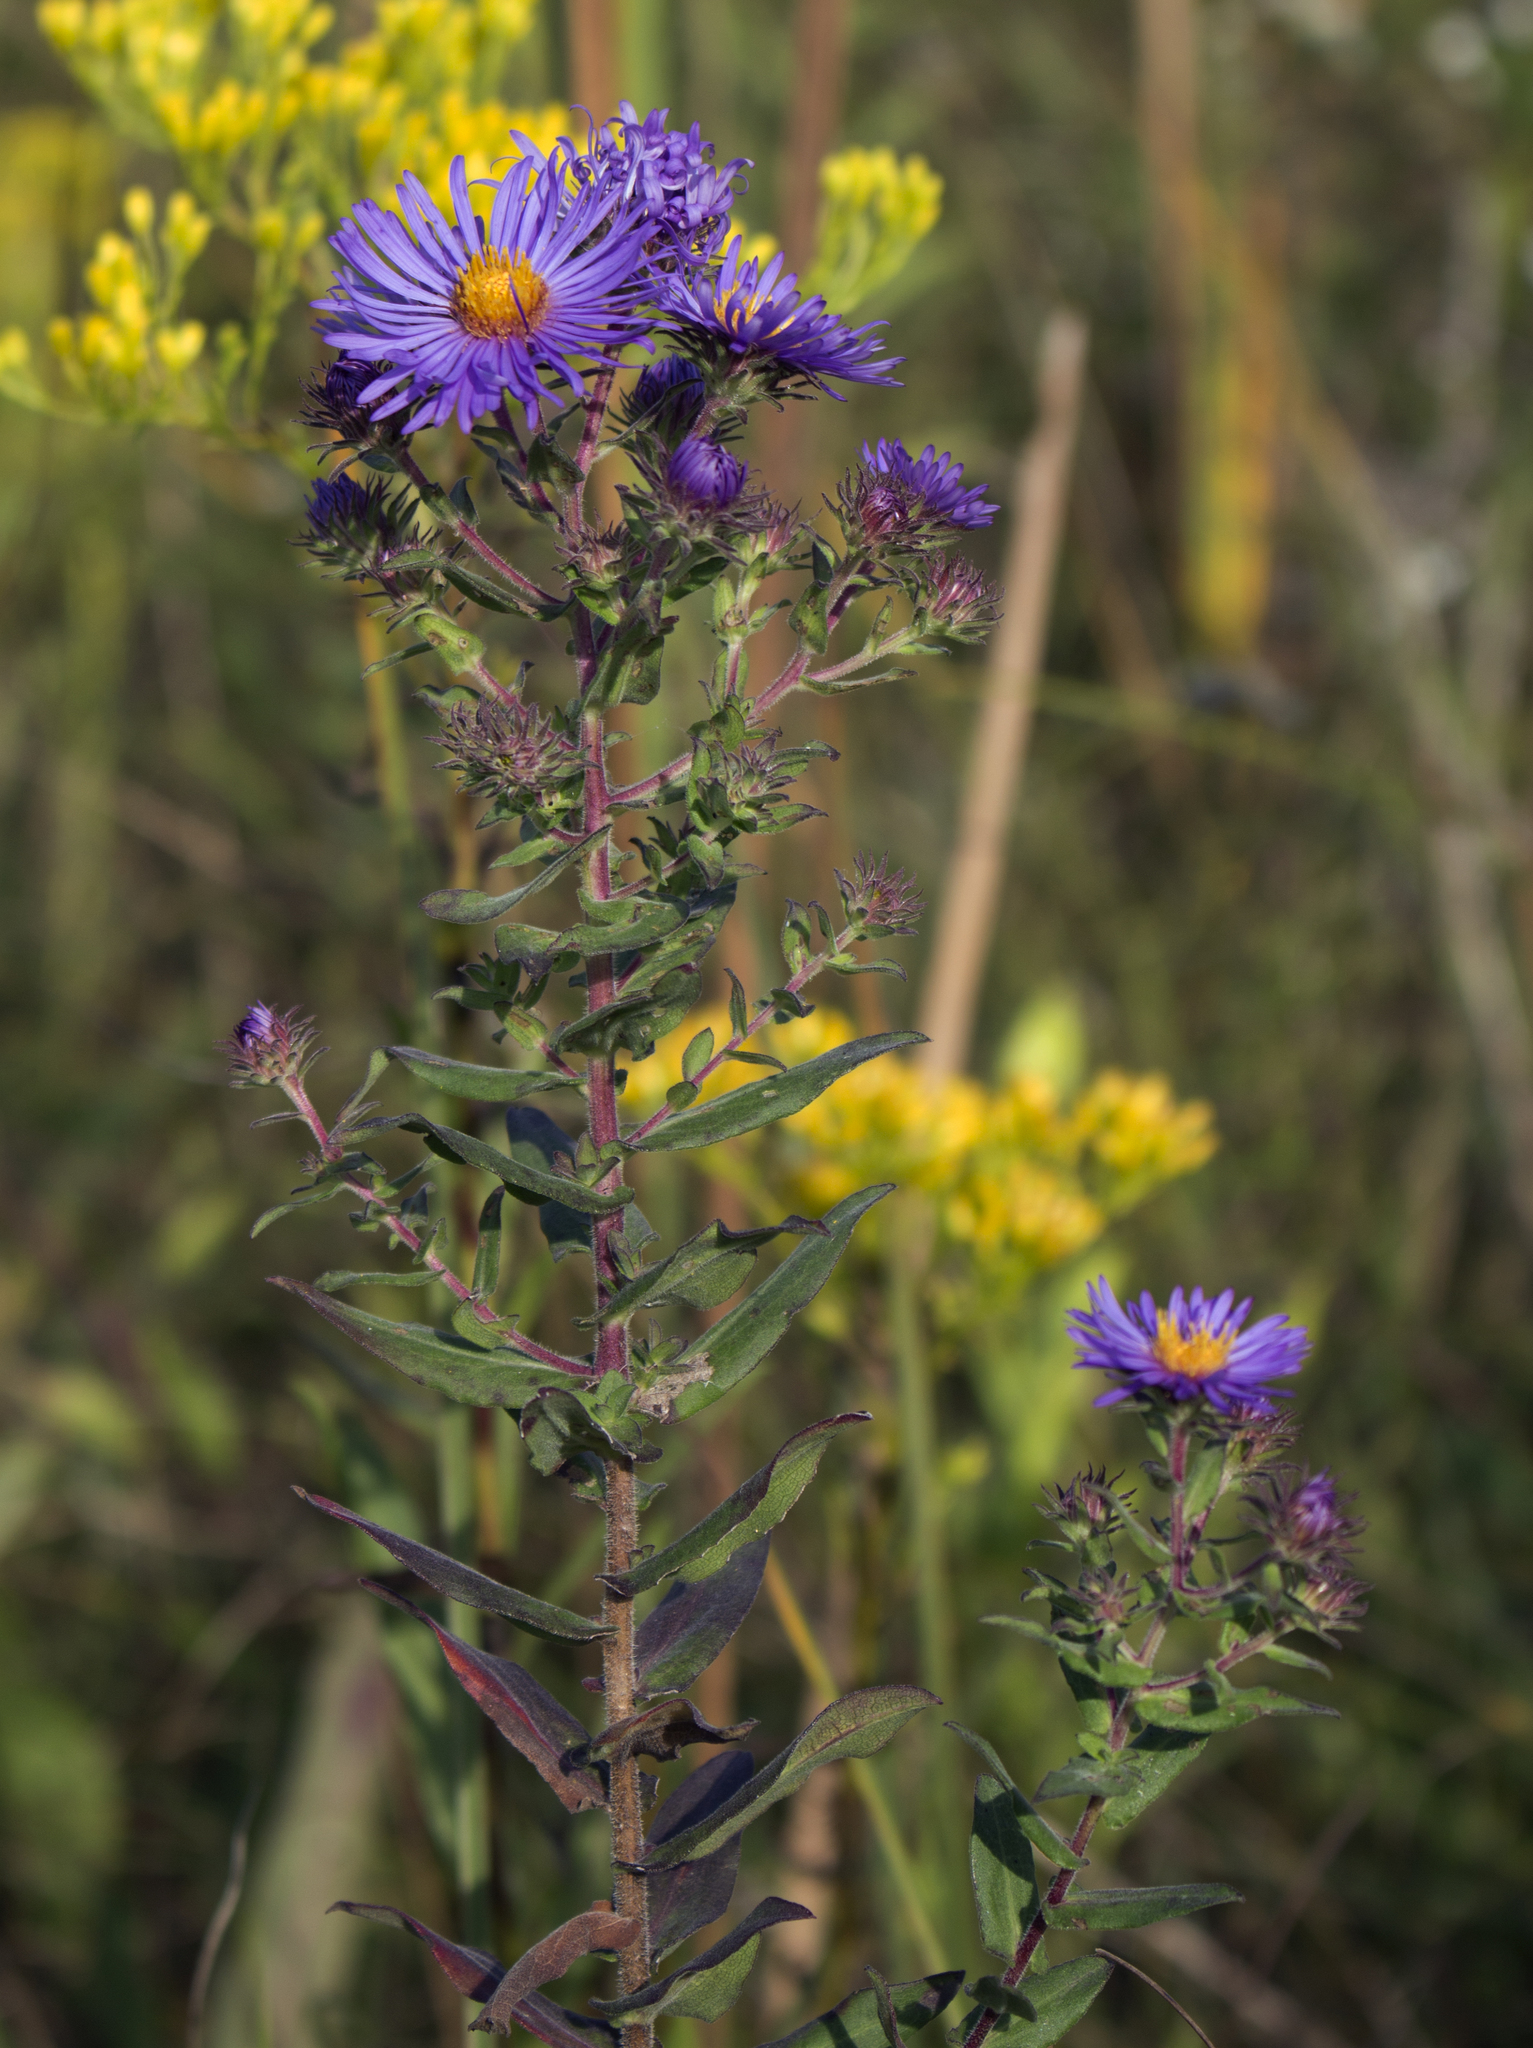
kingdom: Plantae
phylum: Tracheophyta
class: Magnoliopsida
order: Asterales
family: Asteraceae
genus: Symphyotrichum
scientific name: Symphyotrichum novae-angliae
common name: Michaelmas daisy
